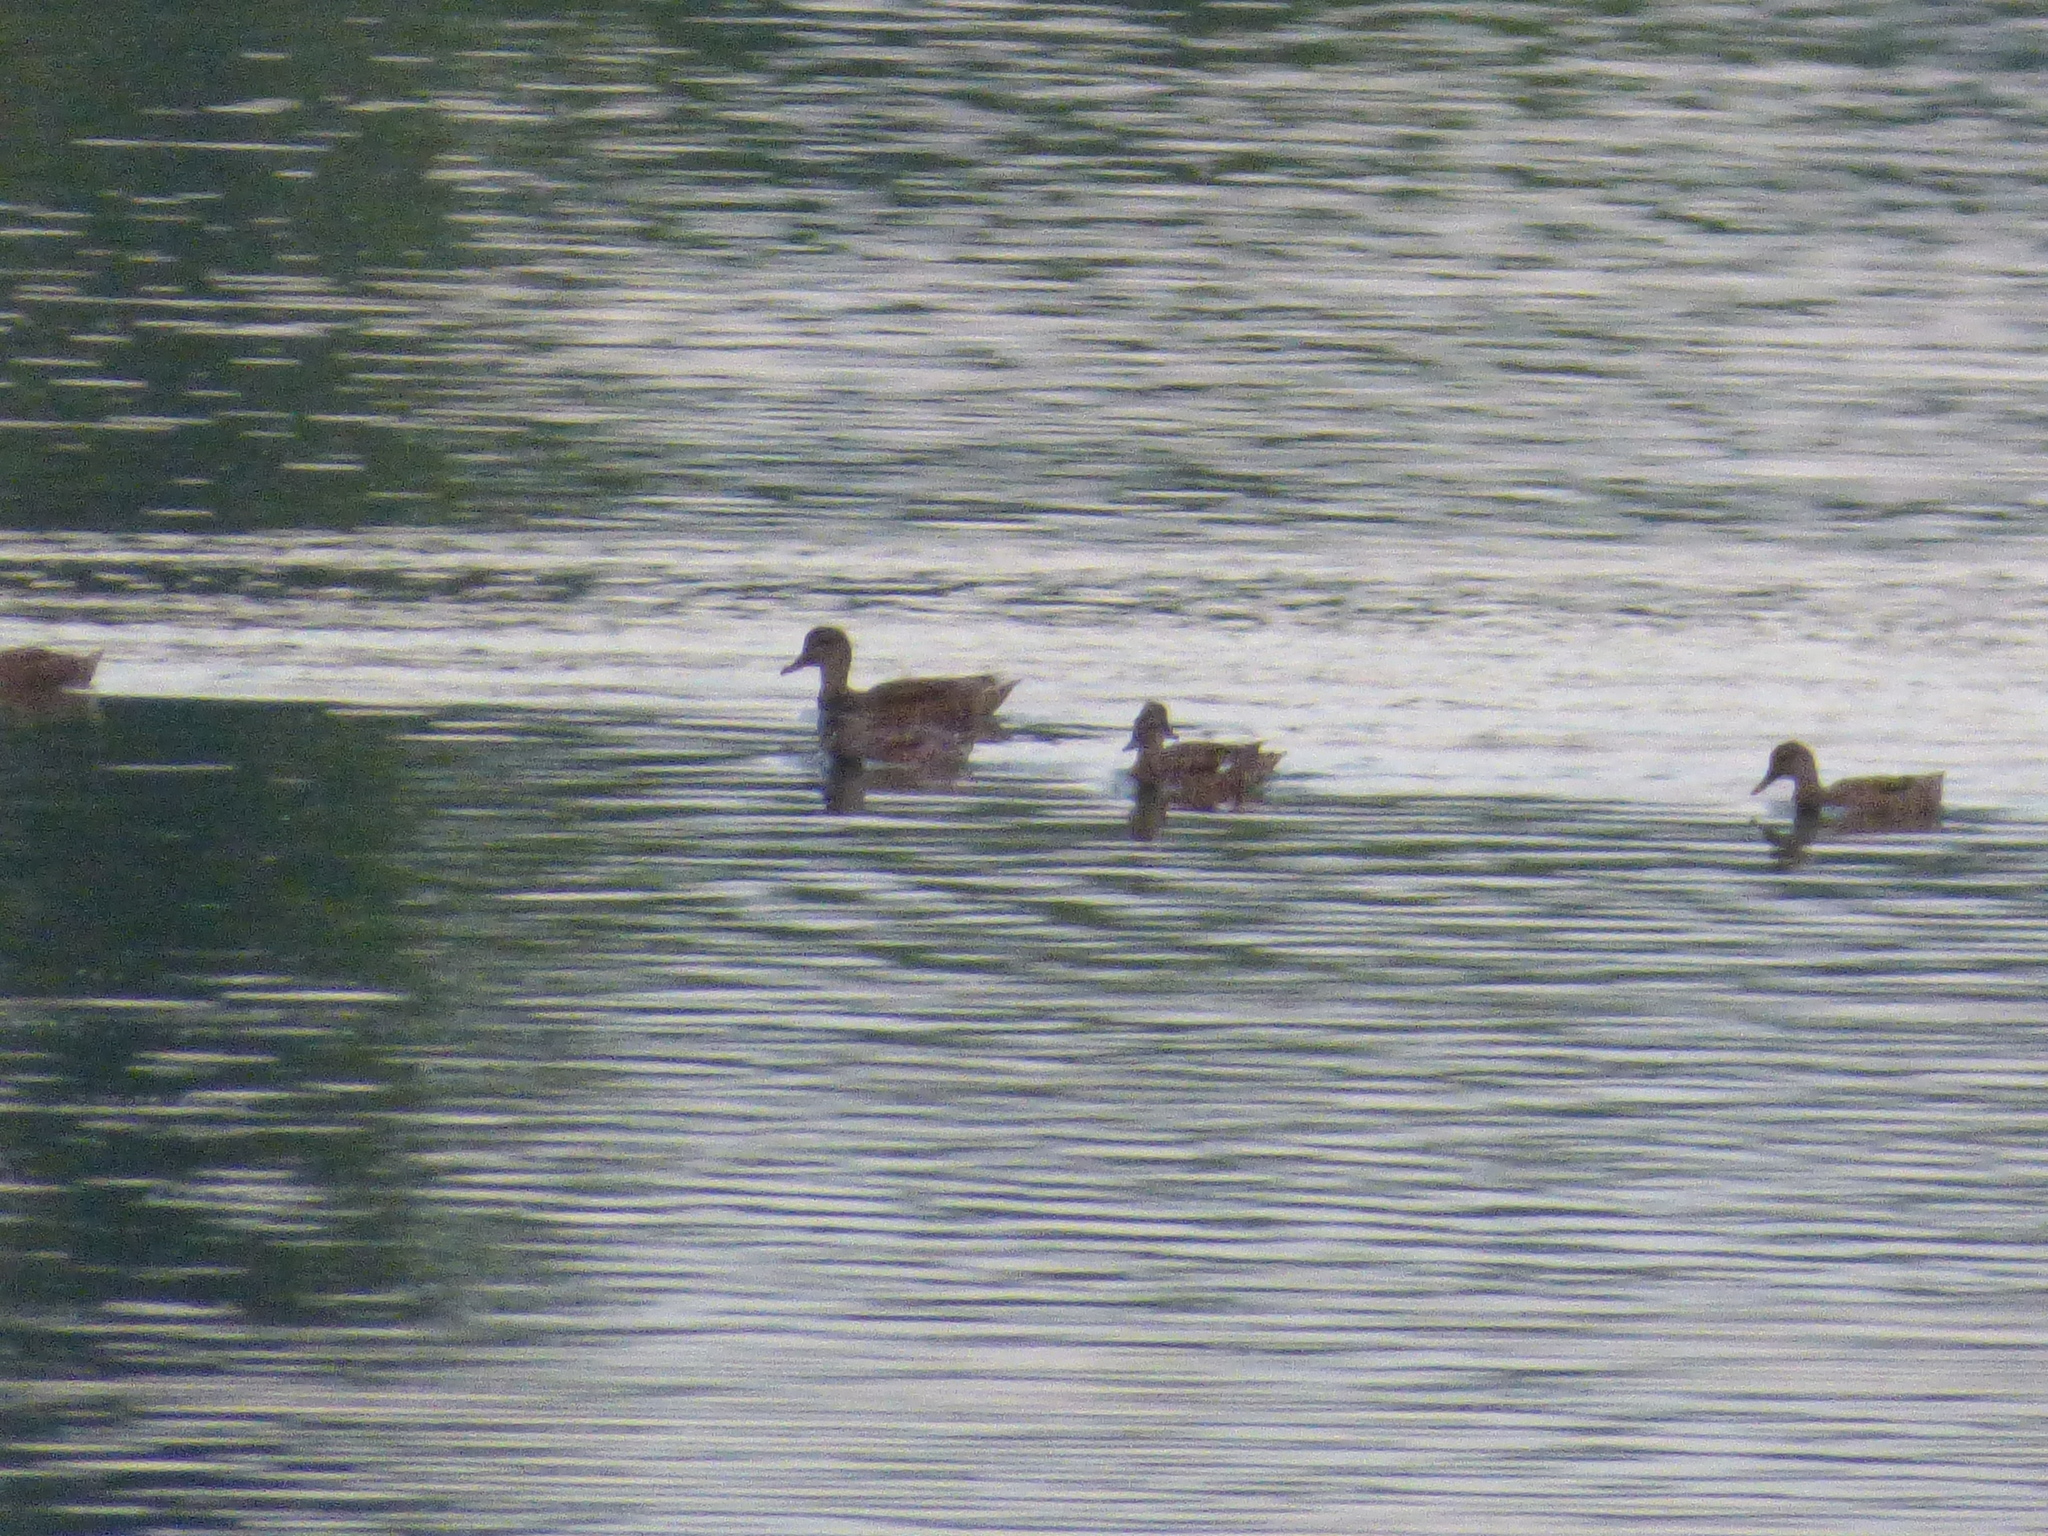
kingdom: Animalia
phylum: Chordata
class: Aves
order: Anseriformes
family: Anatidae
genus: Mareca
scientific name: Mareca strepera
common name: Gadwall
